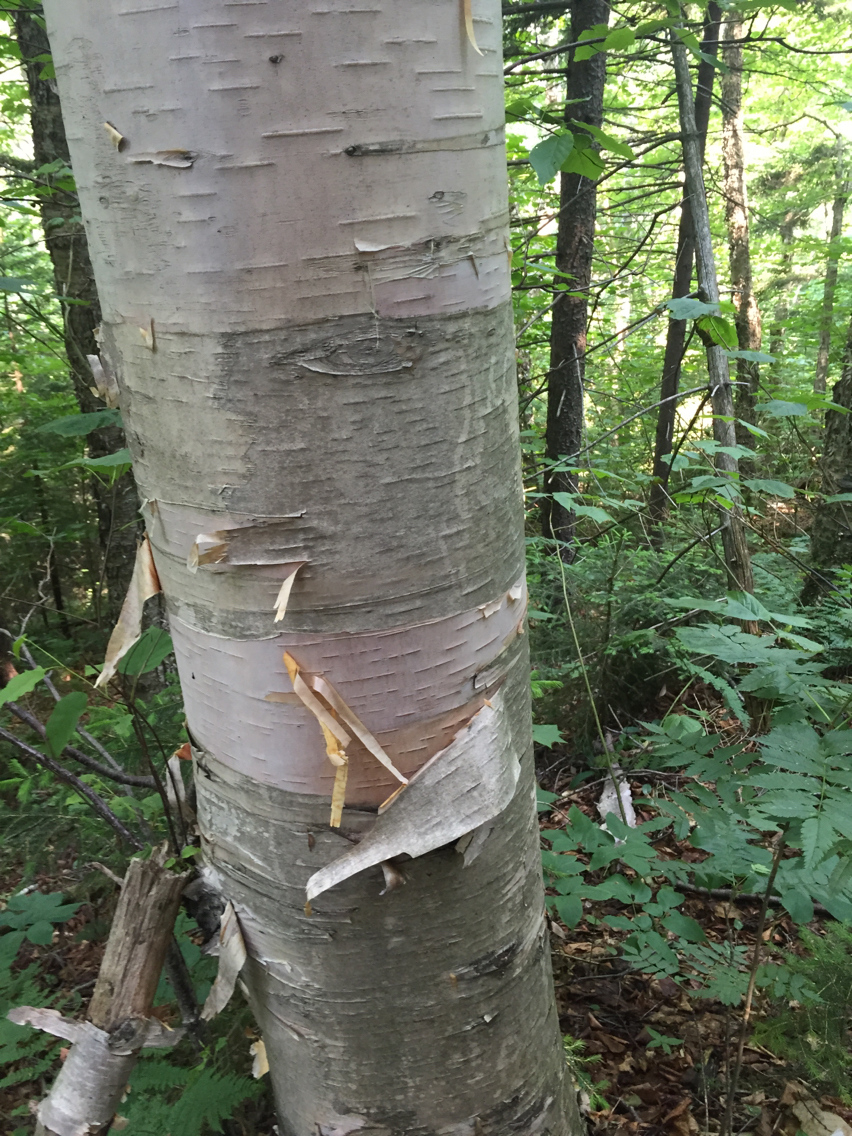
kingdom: Plantae
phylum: Tracheophyta
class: Magnoliopsida
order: Fagales
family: Betulaceae
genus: Betula
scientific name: Betula cordifolia
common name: Mountain white birch
